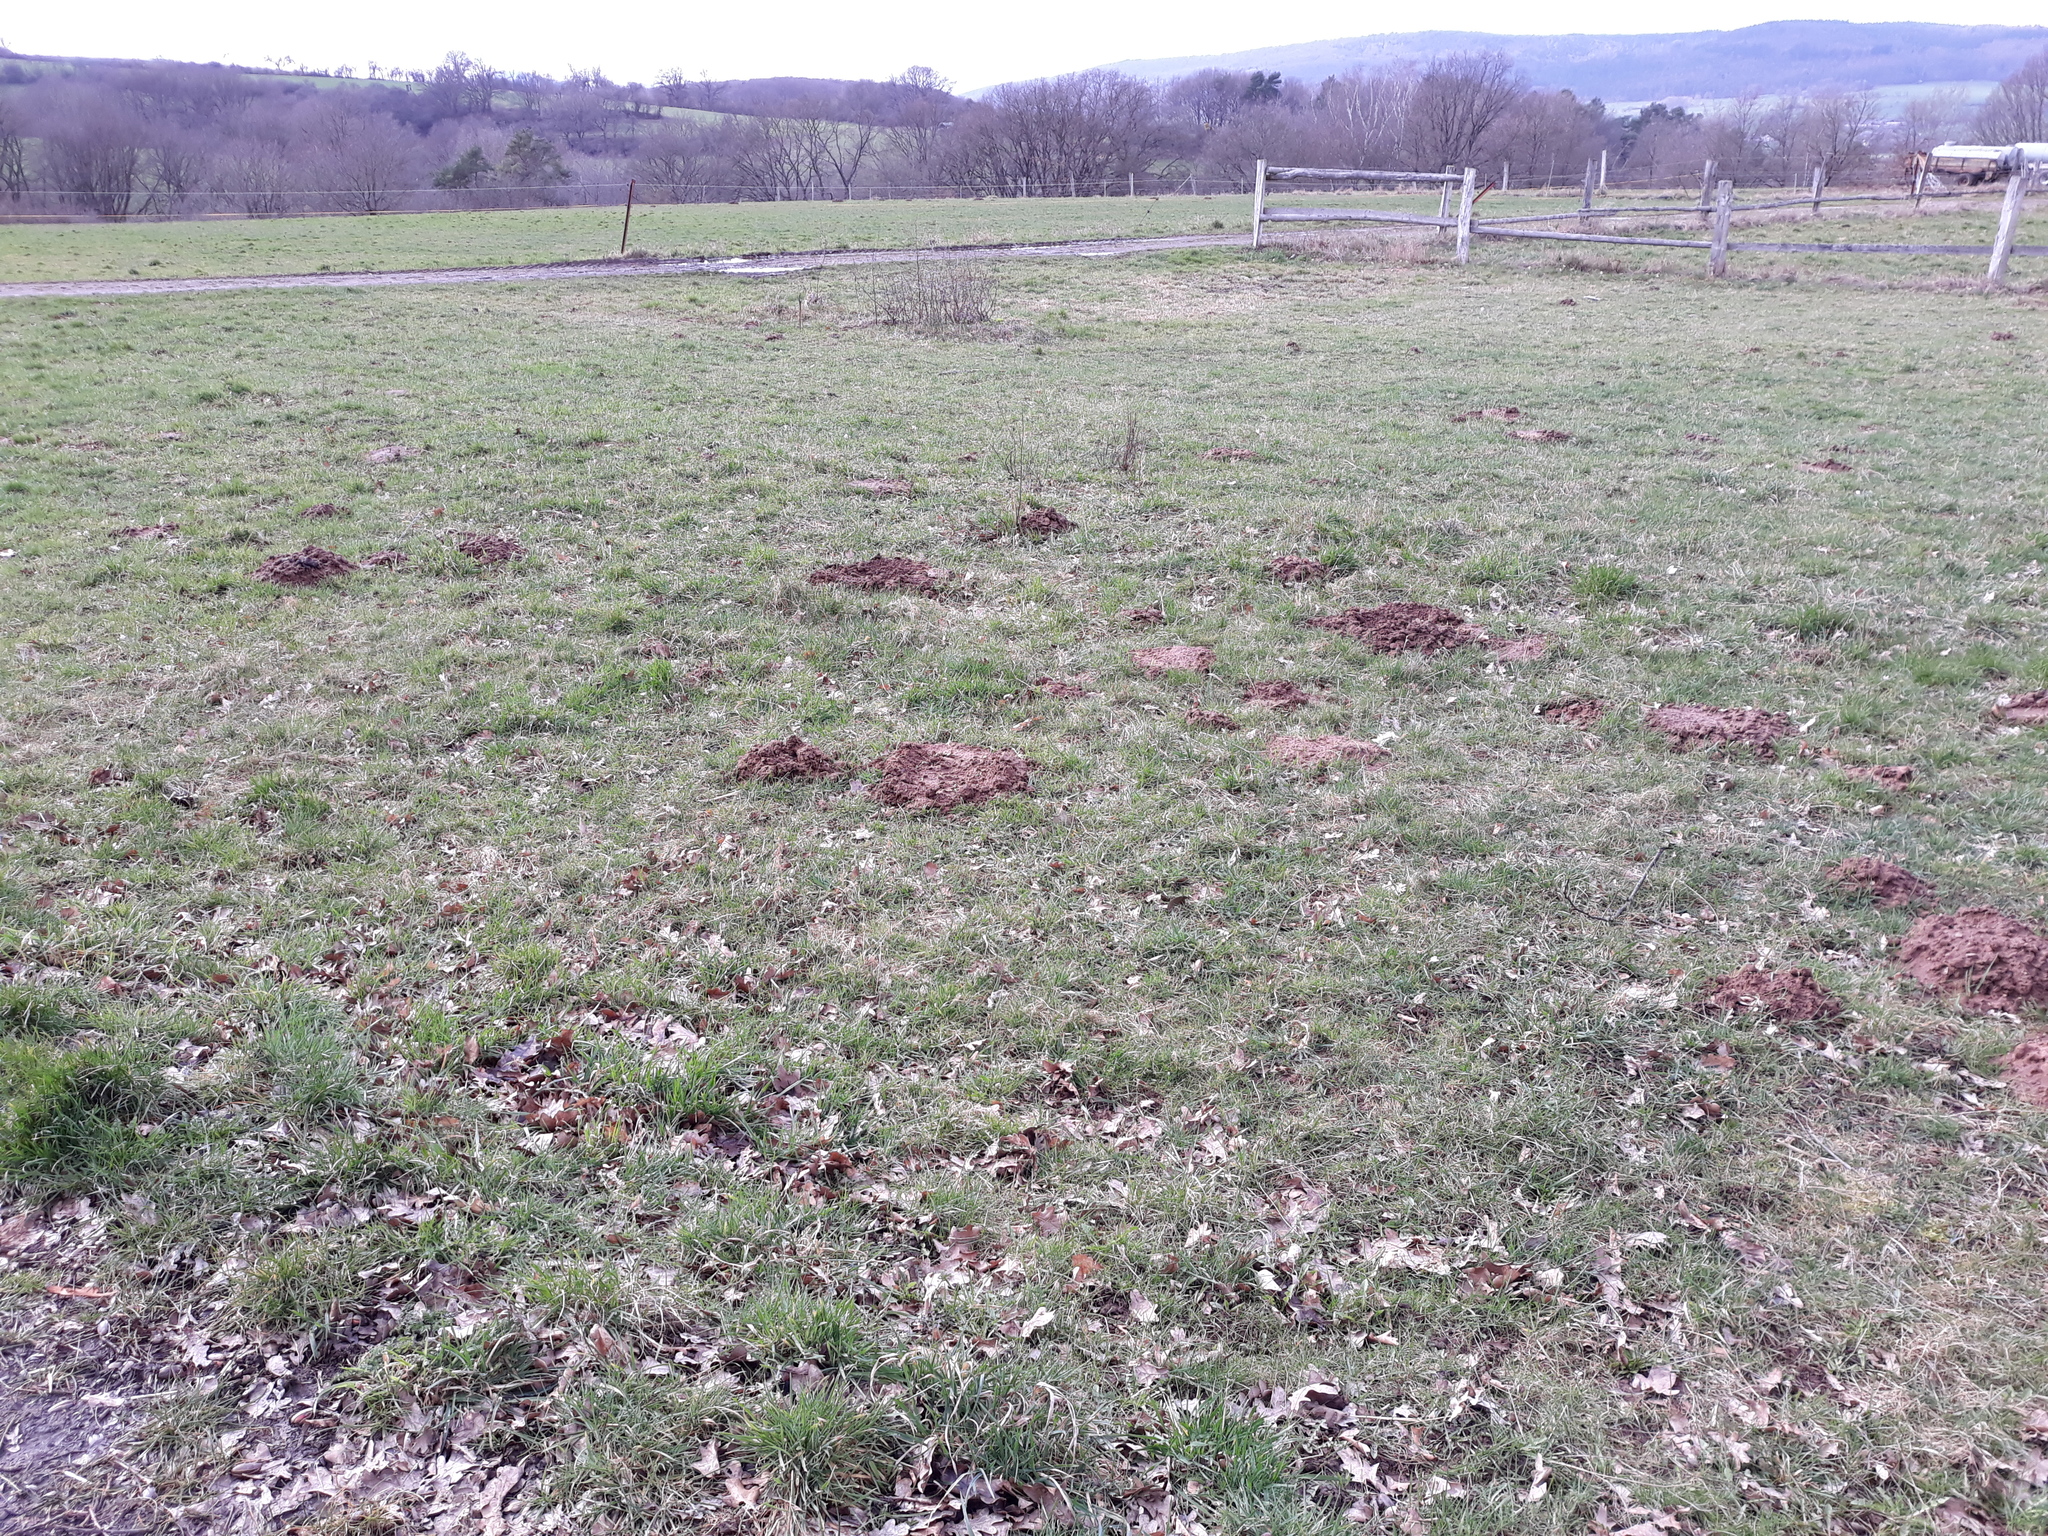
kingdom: Animalia
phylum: Chordata
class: Mammalia
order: Soricomorpha
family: Talpidae
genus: Talpa
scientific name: Talpa europaea
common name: European mole
